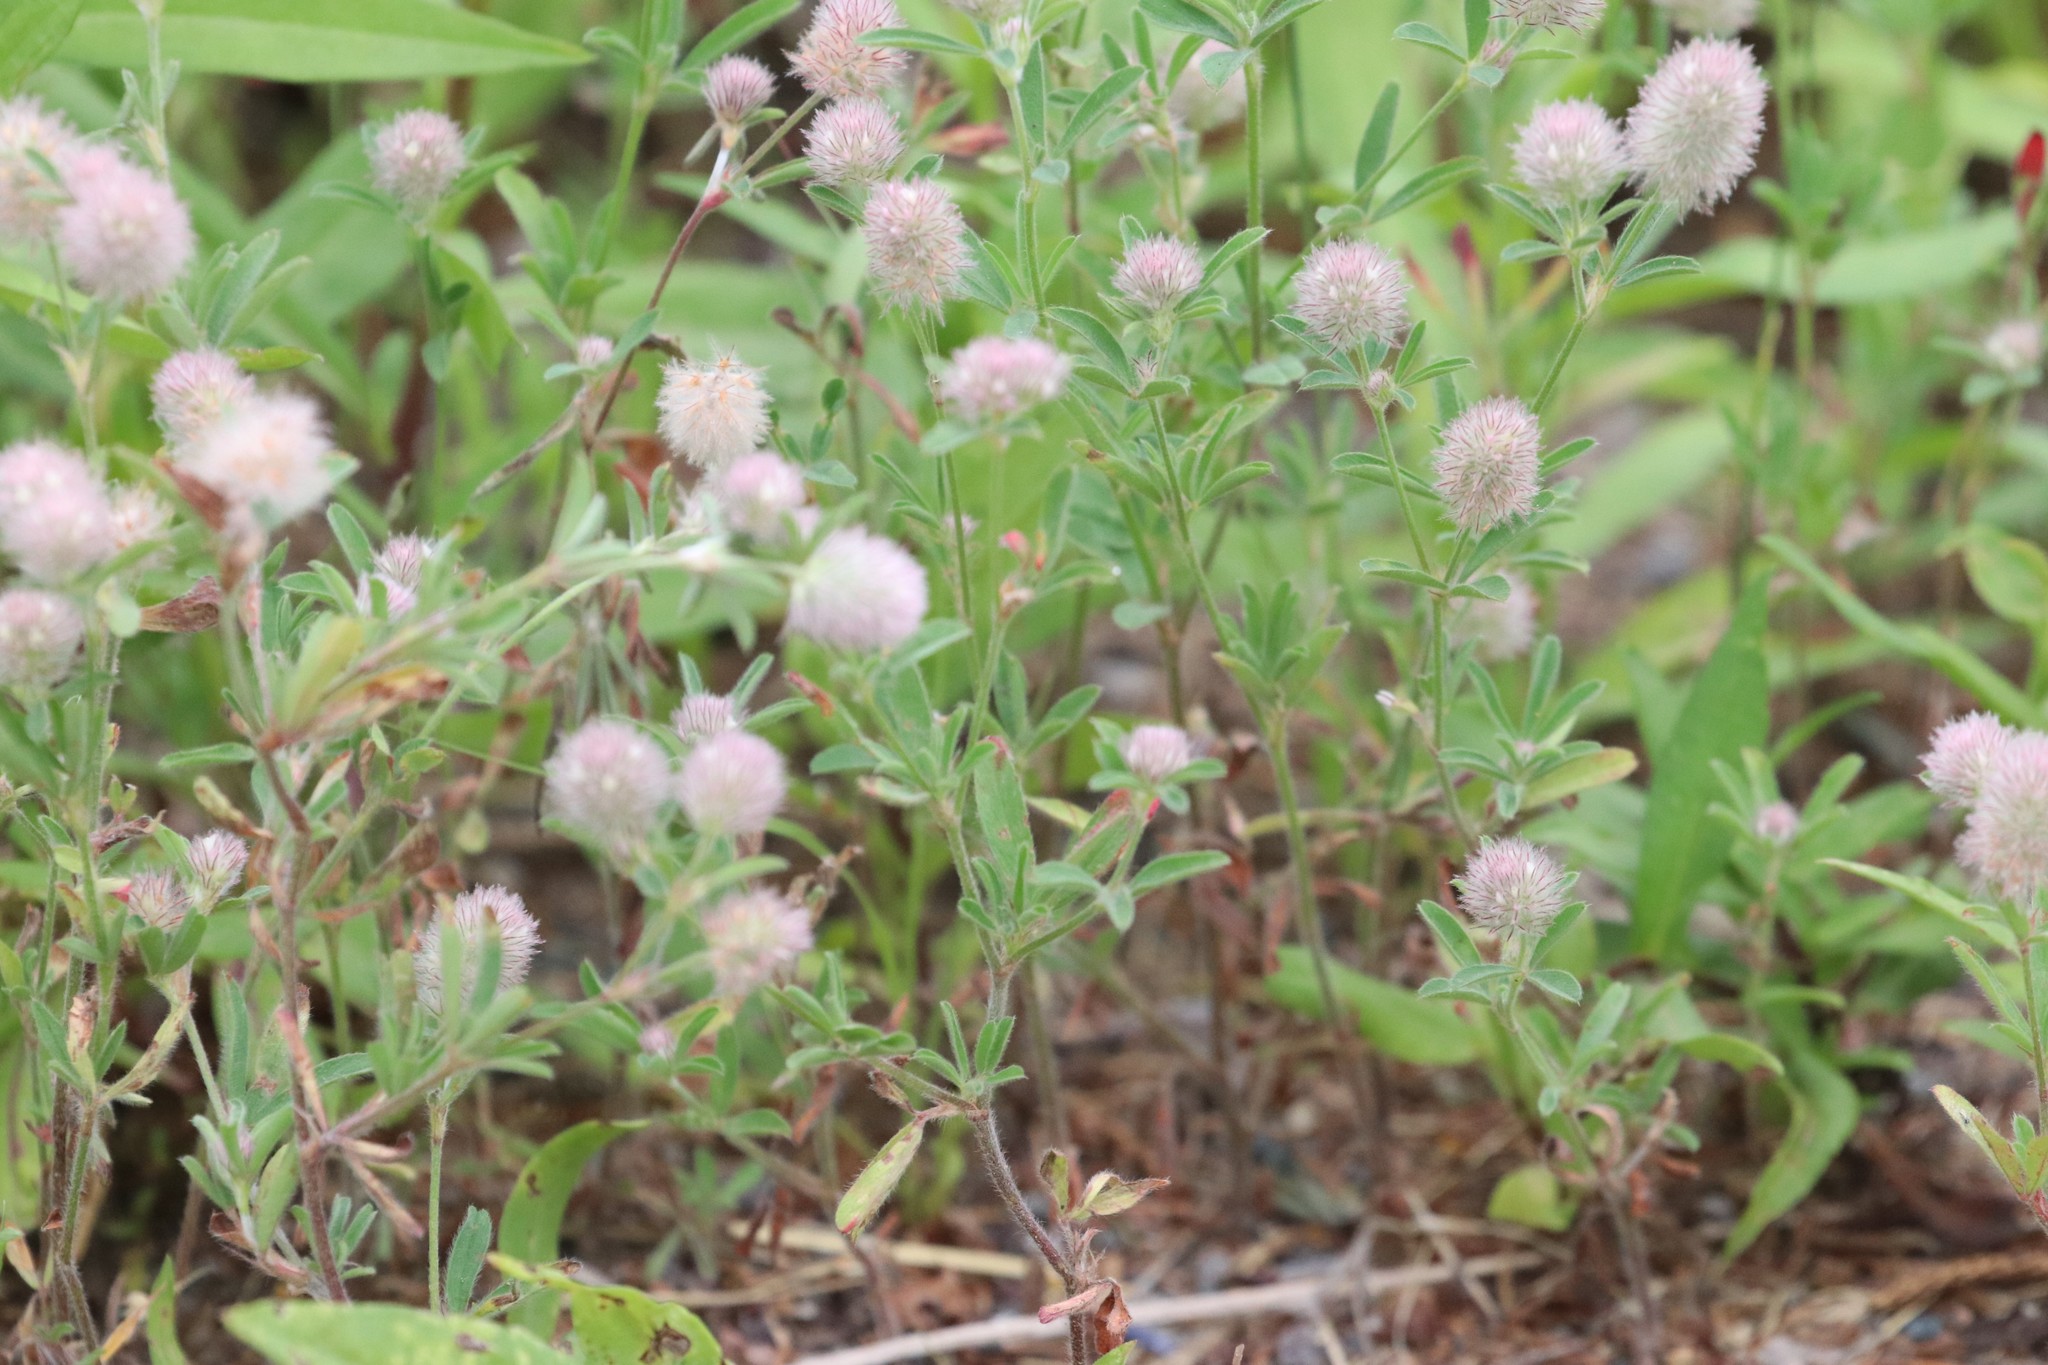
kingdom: Plantae
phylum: Tracheophyta
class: Magnoliopsida
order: Fabales
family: Fabaceae
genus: Trifolium
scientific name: Trifolium arvense
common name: Hare's-foot clover
